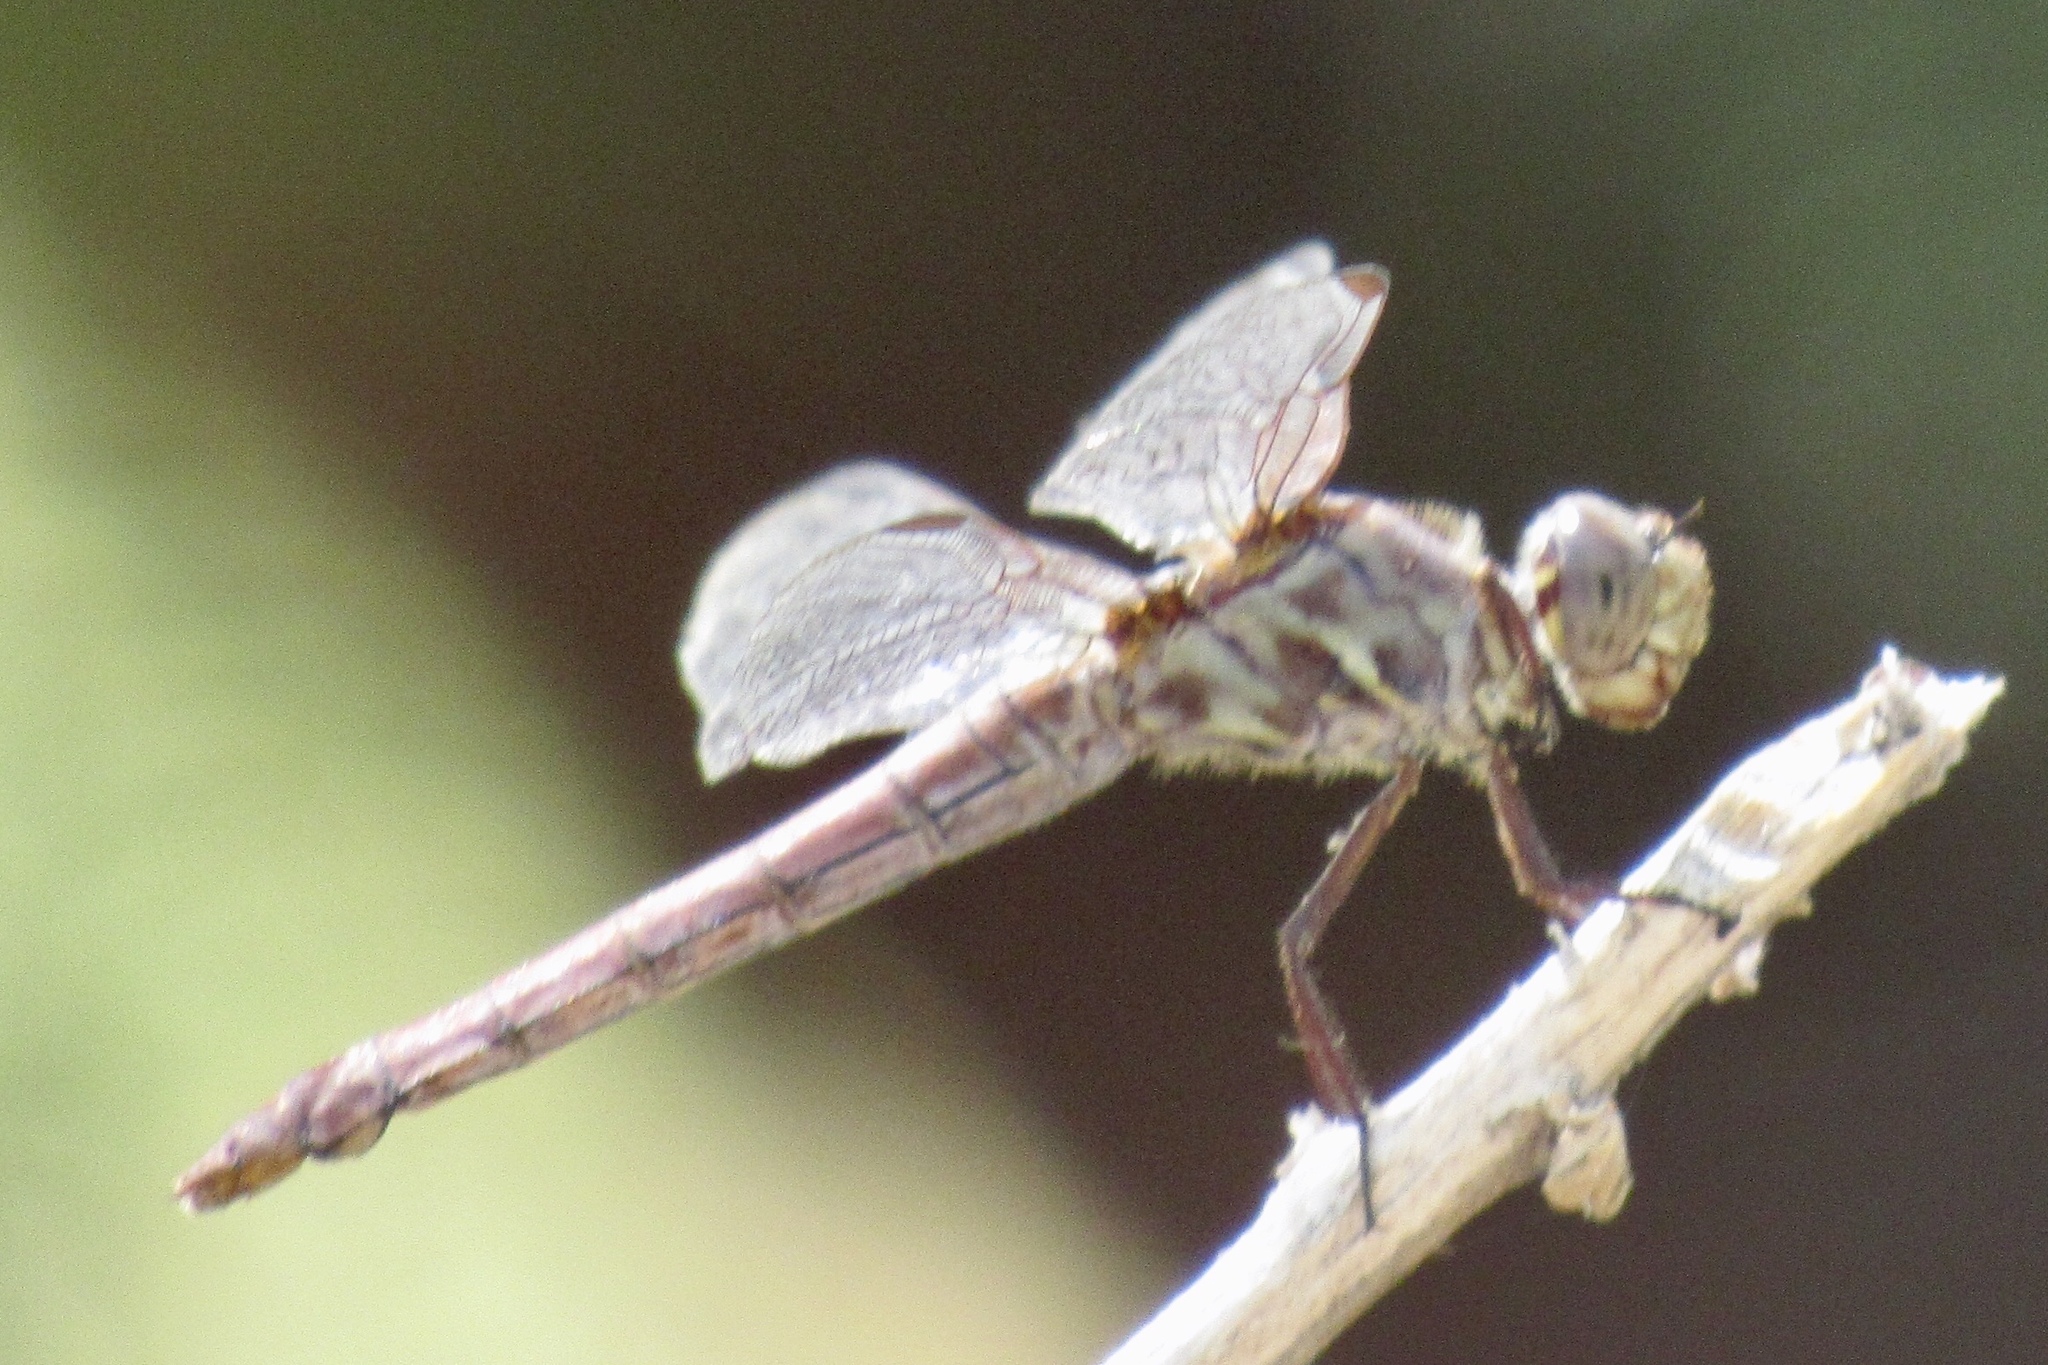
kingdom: Animalia
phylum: Arthropoda
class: Insecta
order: Odonata
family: Libellulidae
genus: Orthemis
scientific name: Orthemis ferruginea
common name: Roseate skimmer
